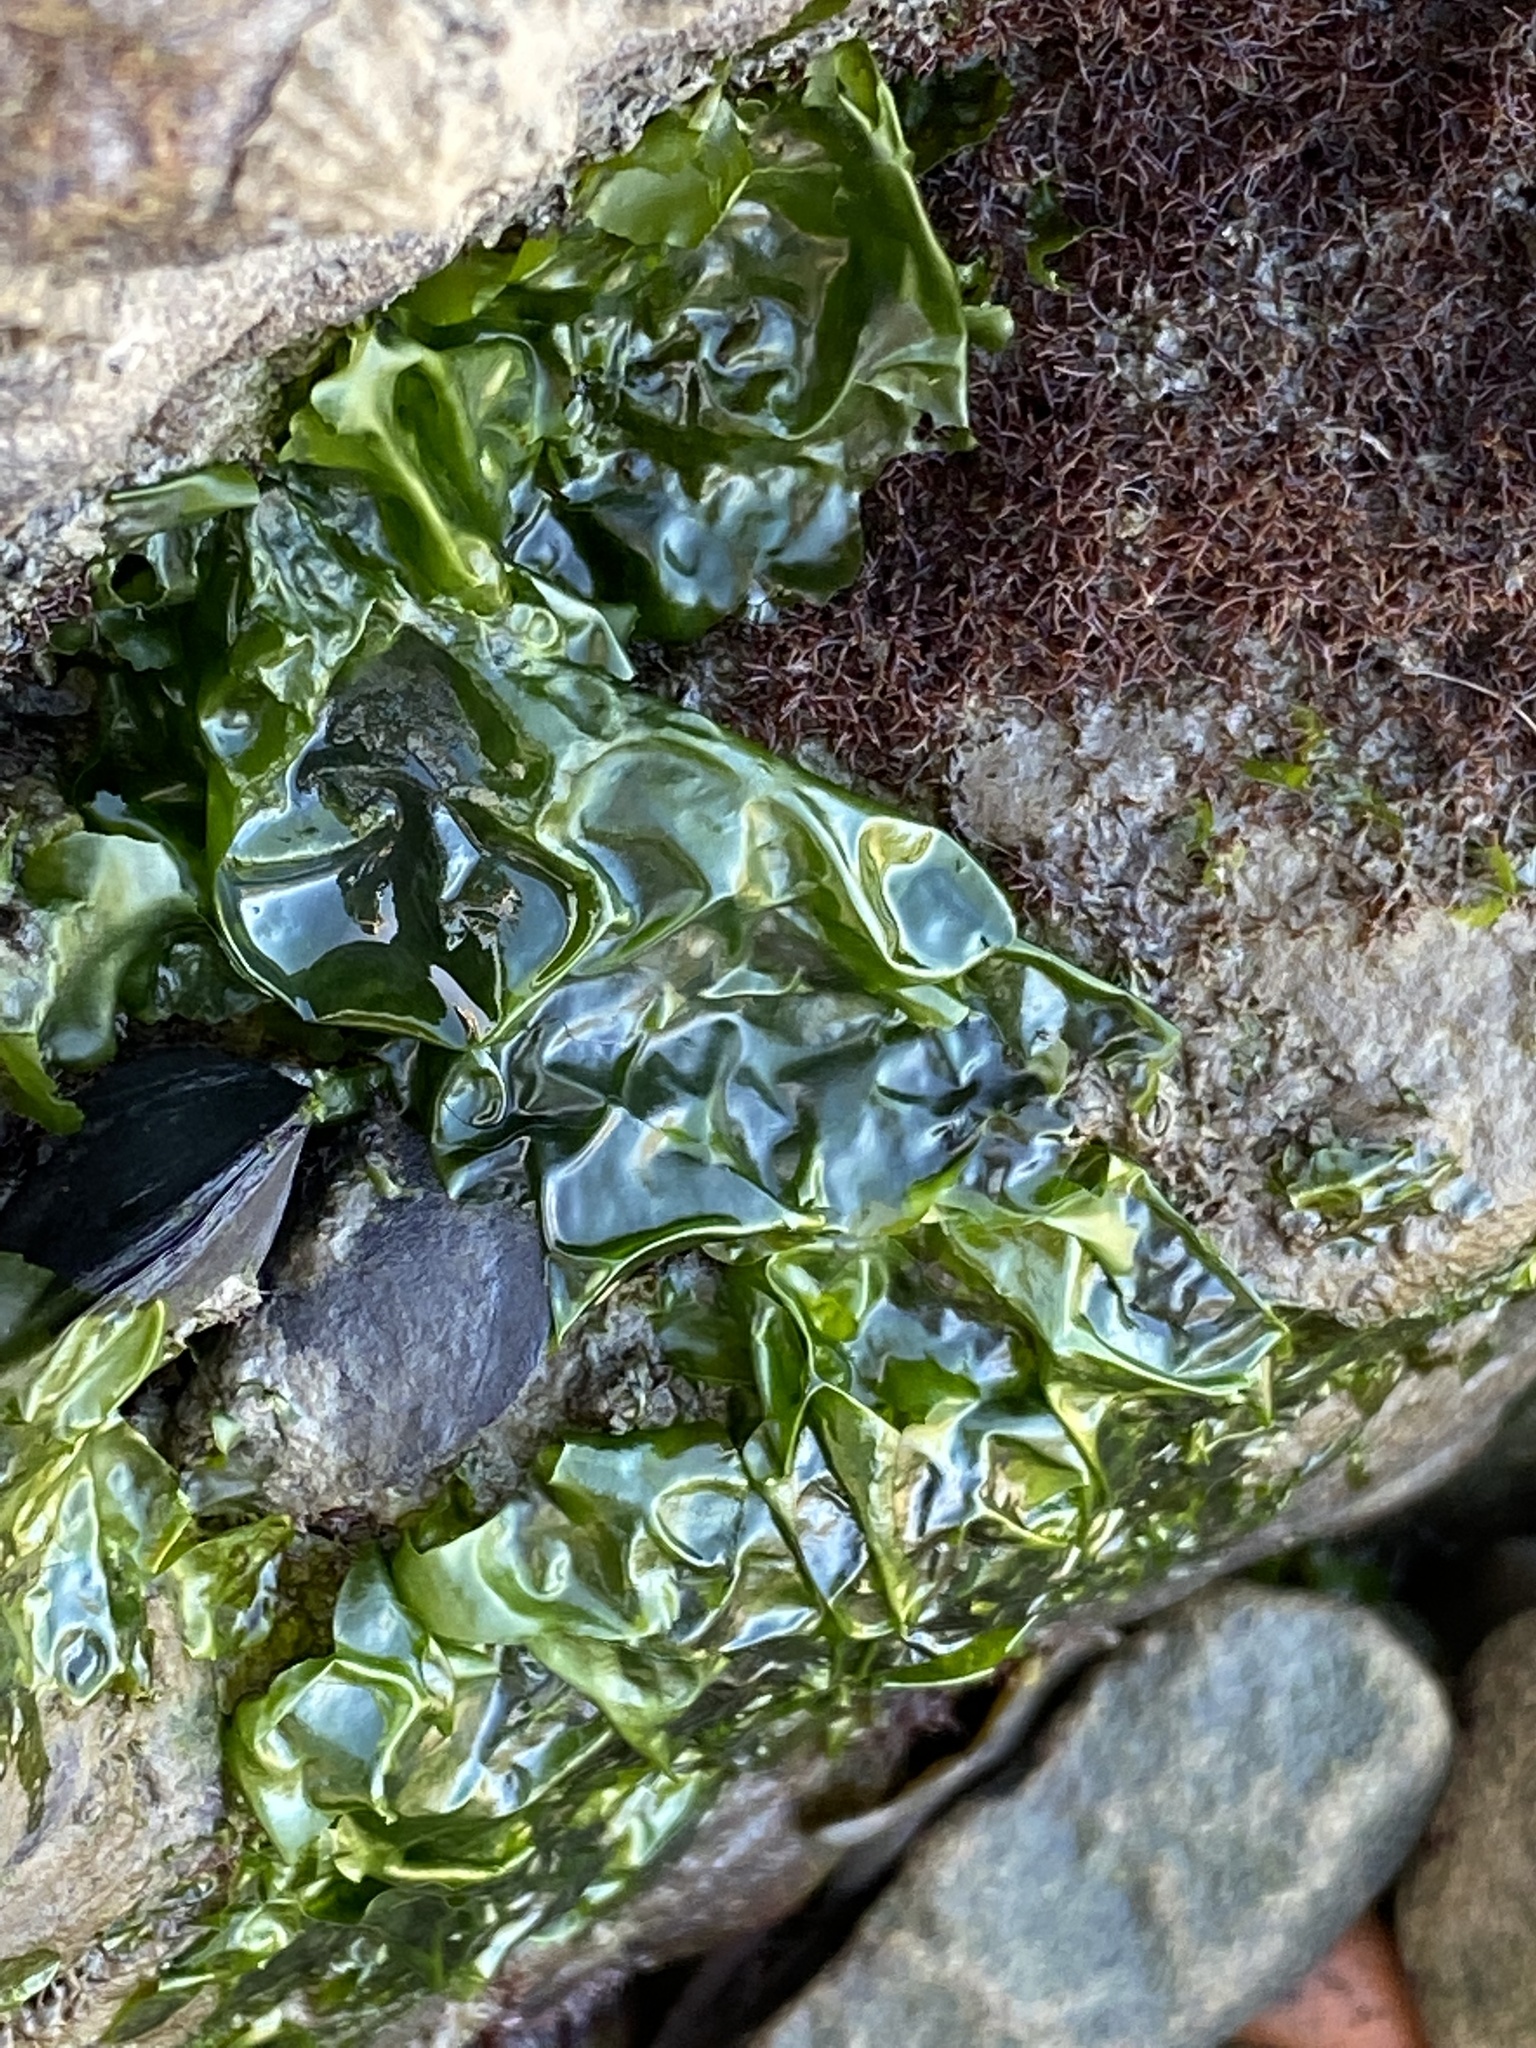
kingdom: Plantae
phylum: Chlorophyta
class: Ulvophyceae
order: Ulvales
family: Ulvaceae
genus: Ulva
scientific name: Ulva lactuca
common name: Sea lettuce
